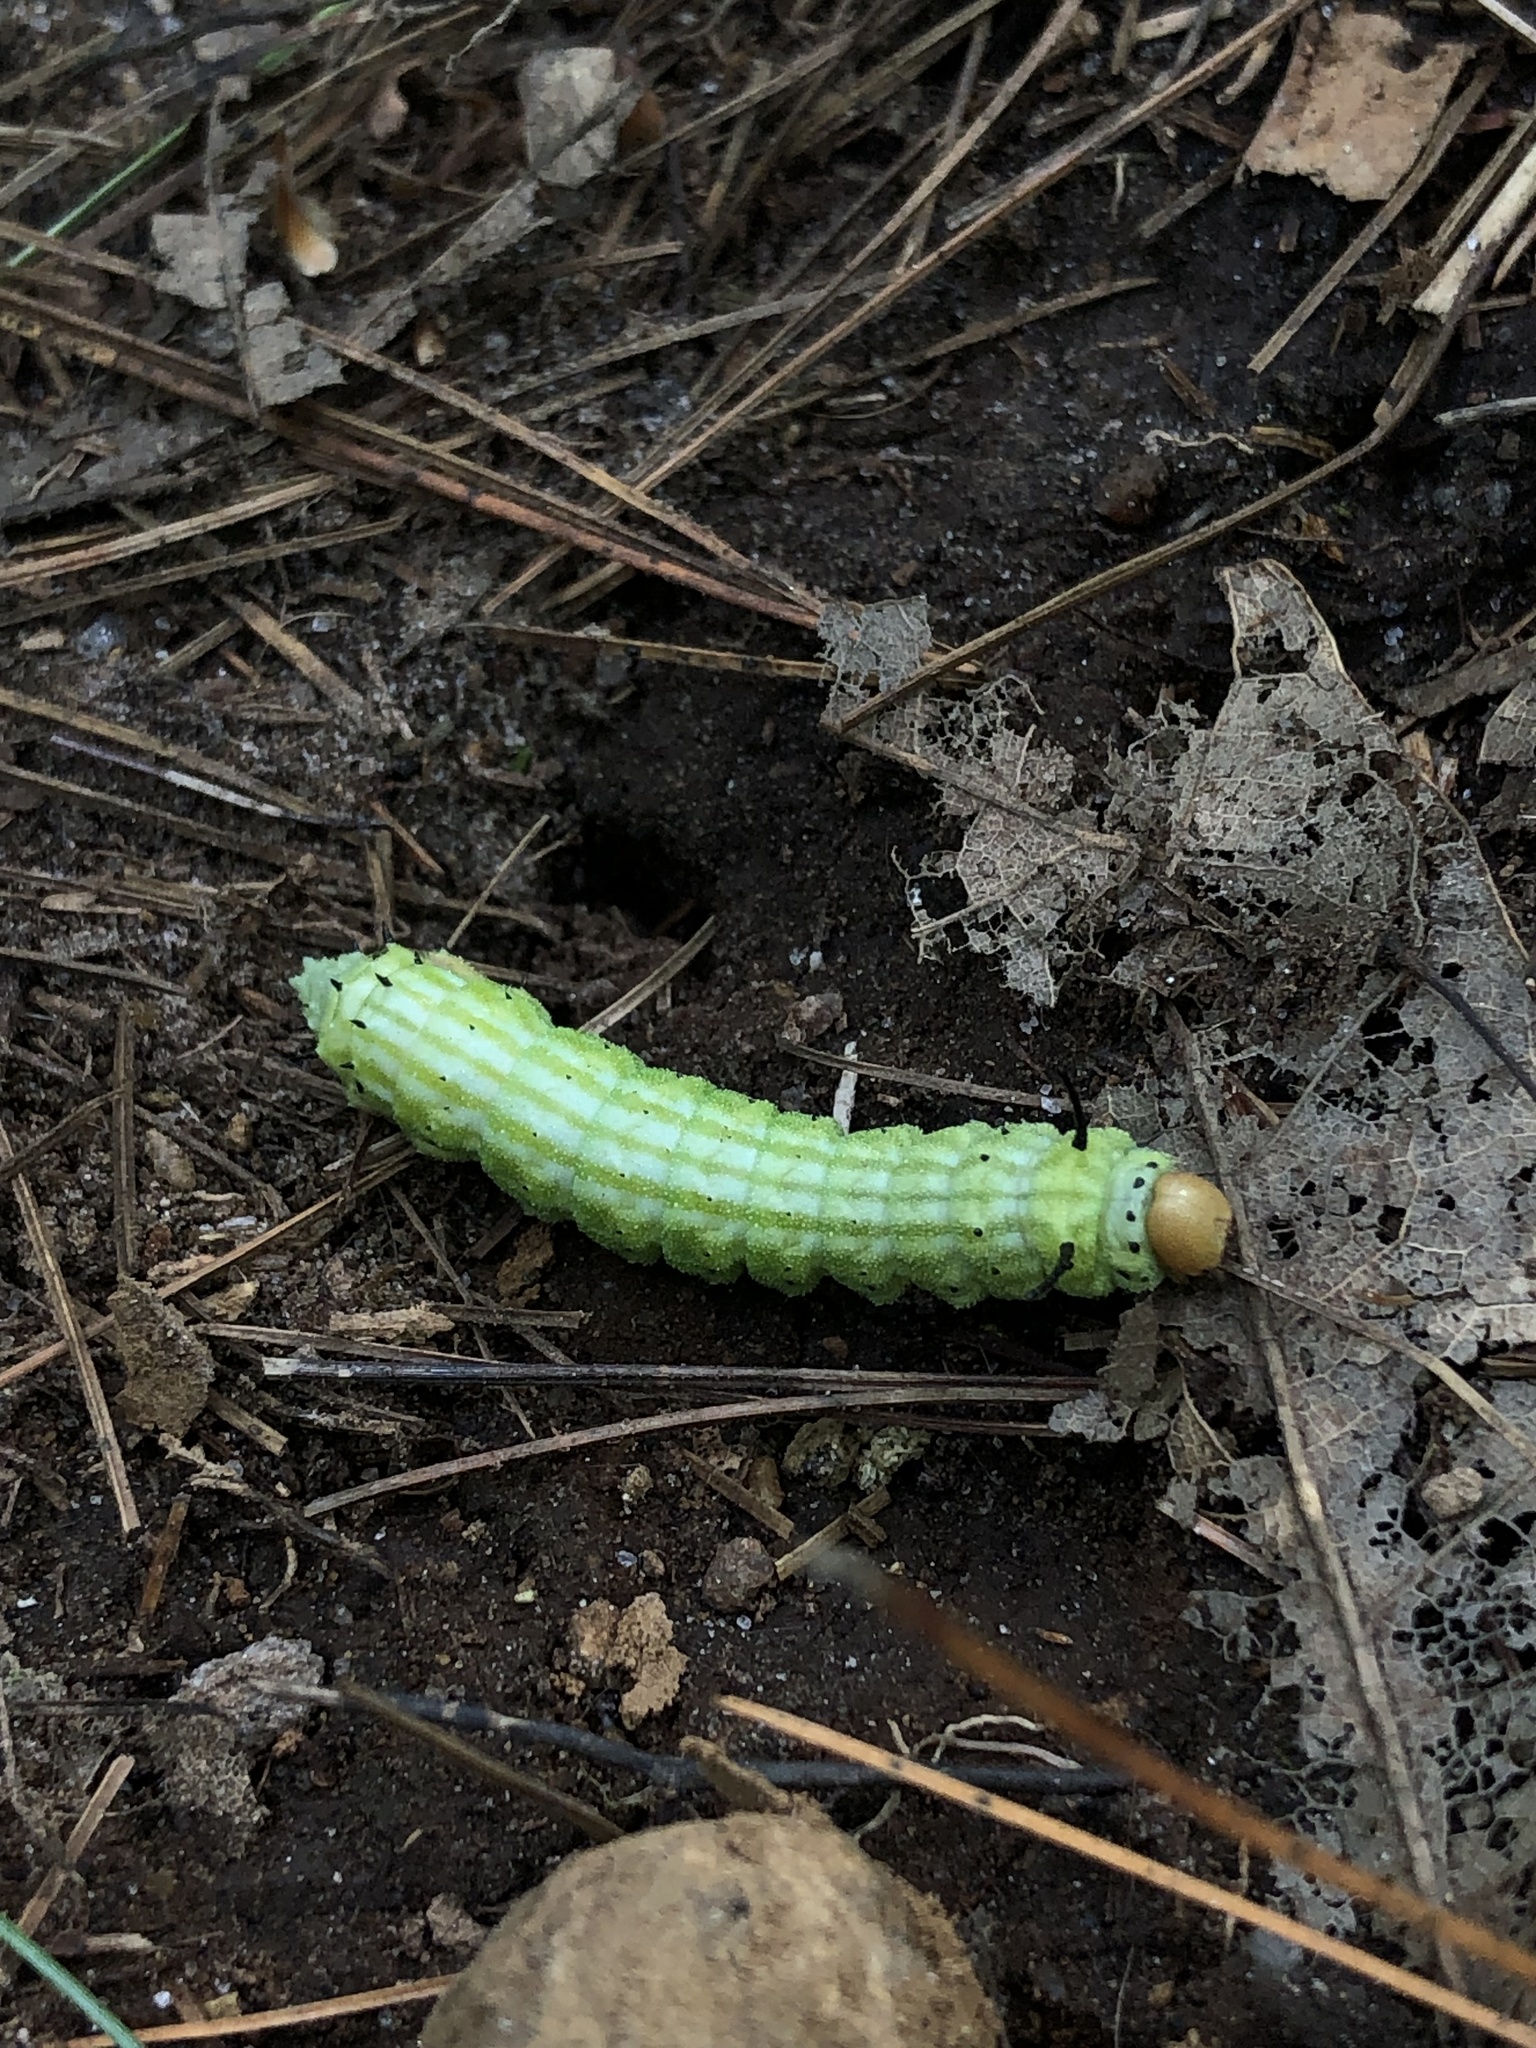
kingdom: Animalia
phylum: Arthropoda
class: Insecta
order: Lepidoptera
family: Saturniidae
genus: Dryocampa
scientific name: Dryocampa rubicunda
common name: Rosy maple moth
